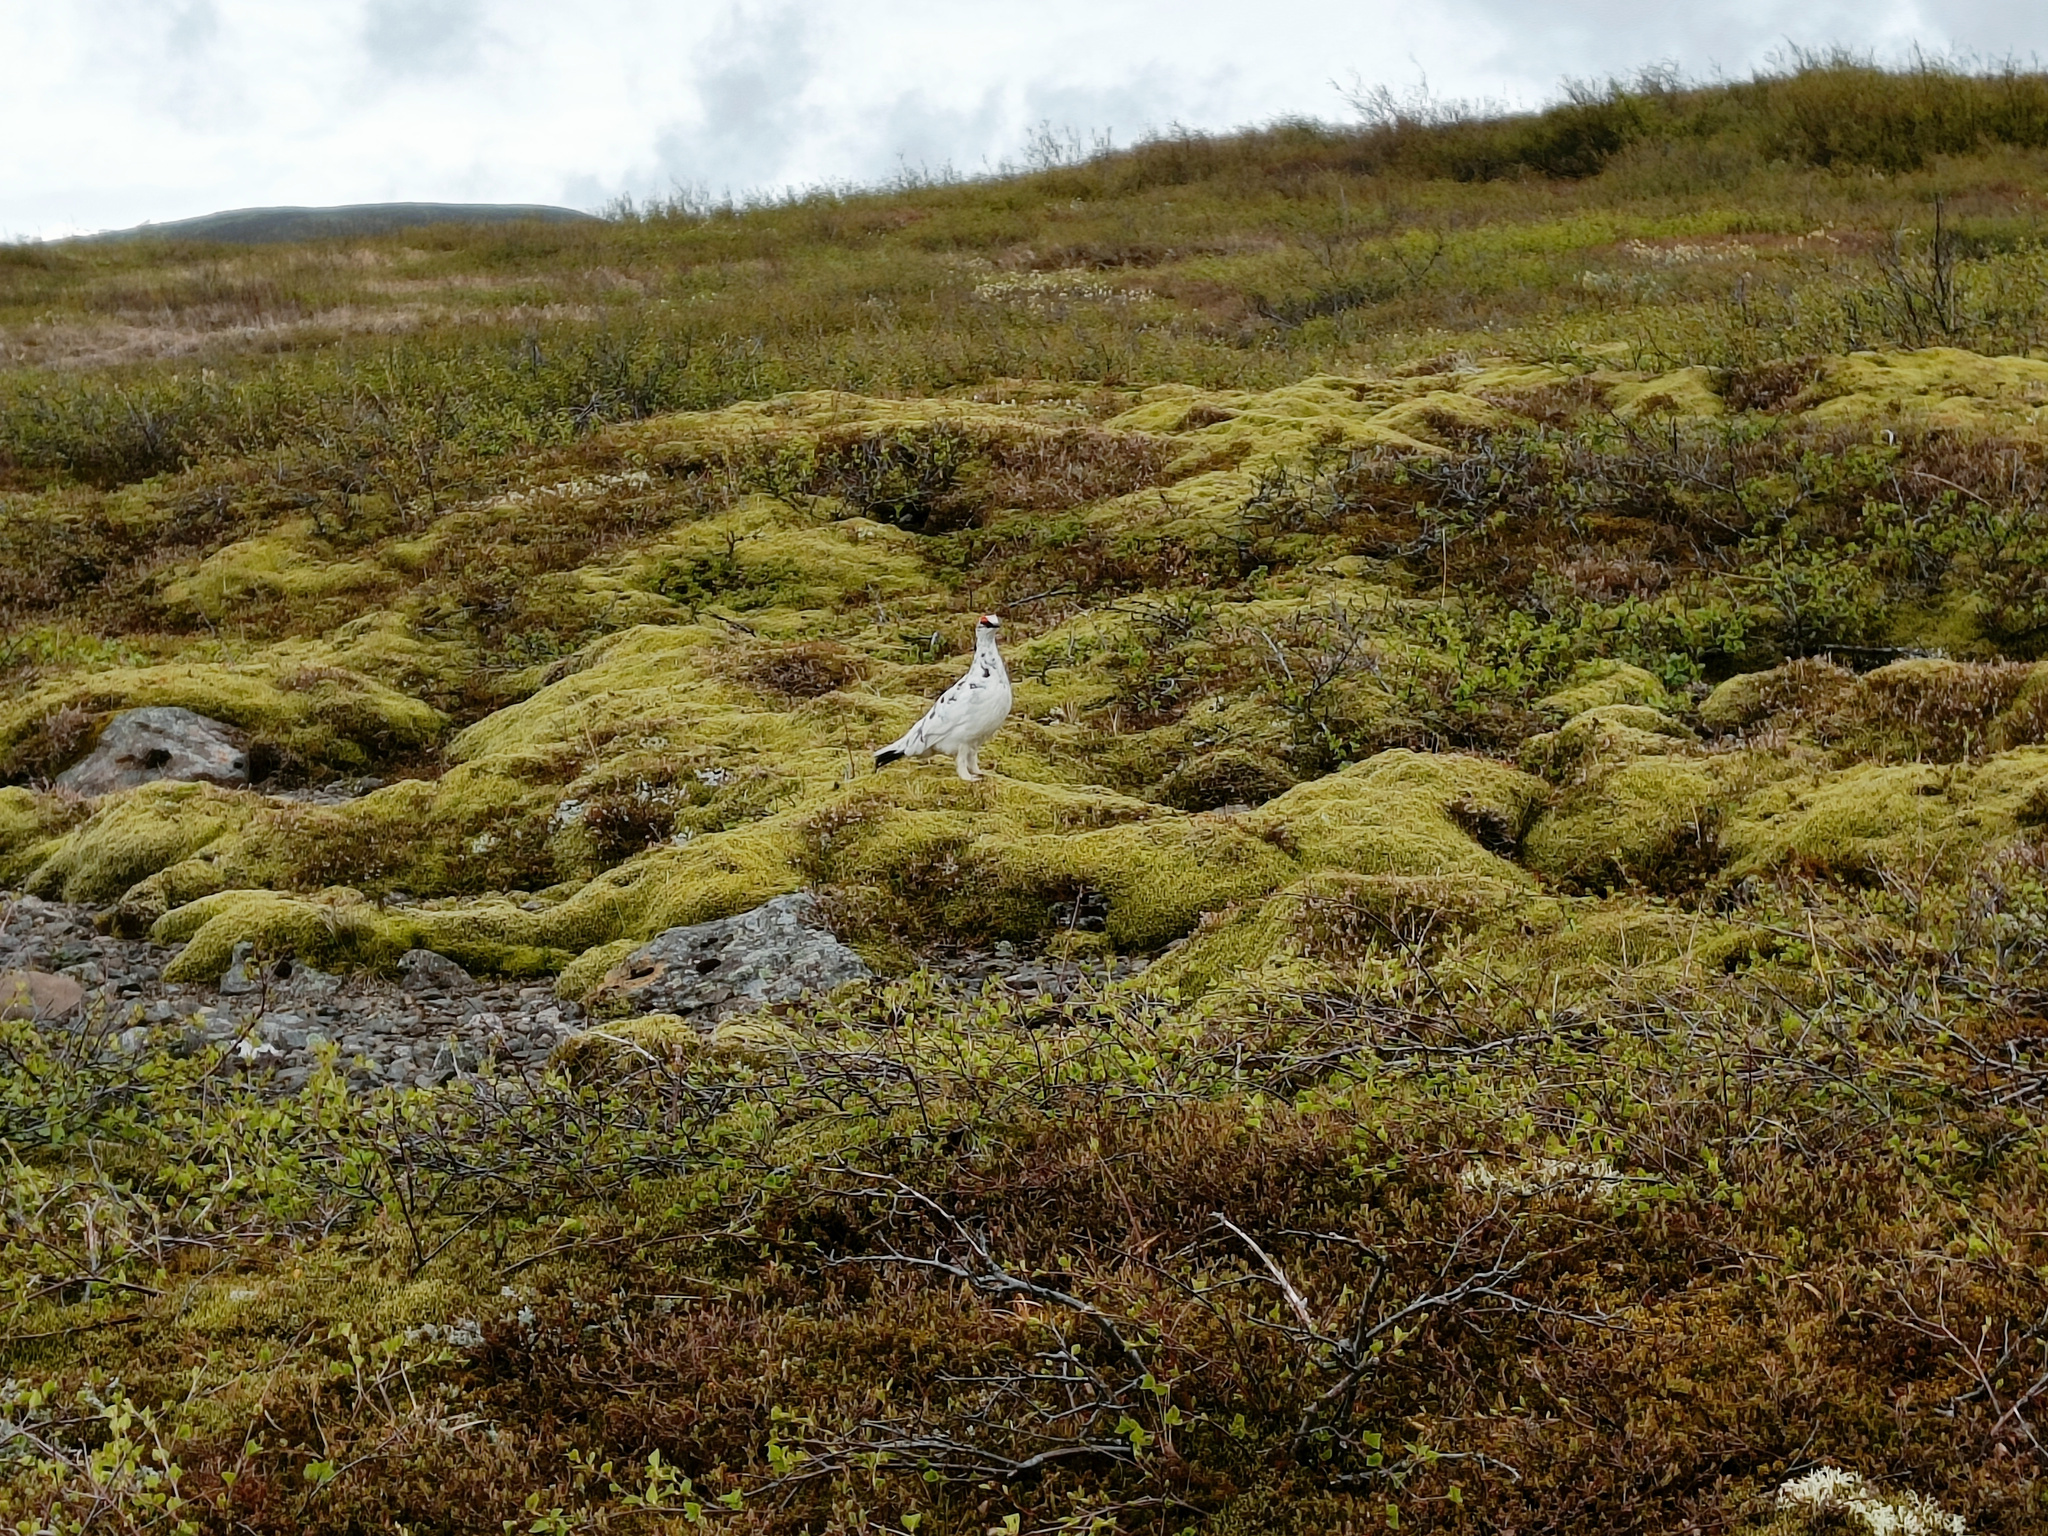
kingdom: Animalia
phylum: Chordata
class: Aves
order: Galliformes
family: Phasianidae
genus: Lagopus
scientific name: Lagopus muta
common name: Rock ptarmigan
